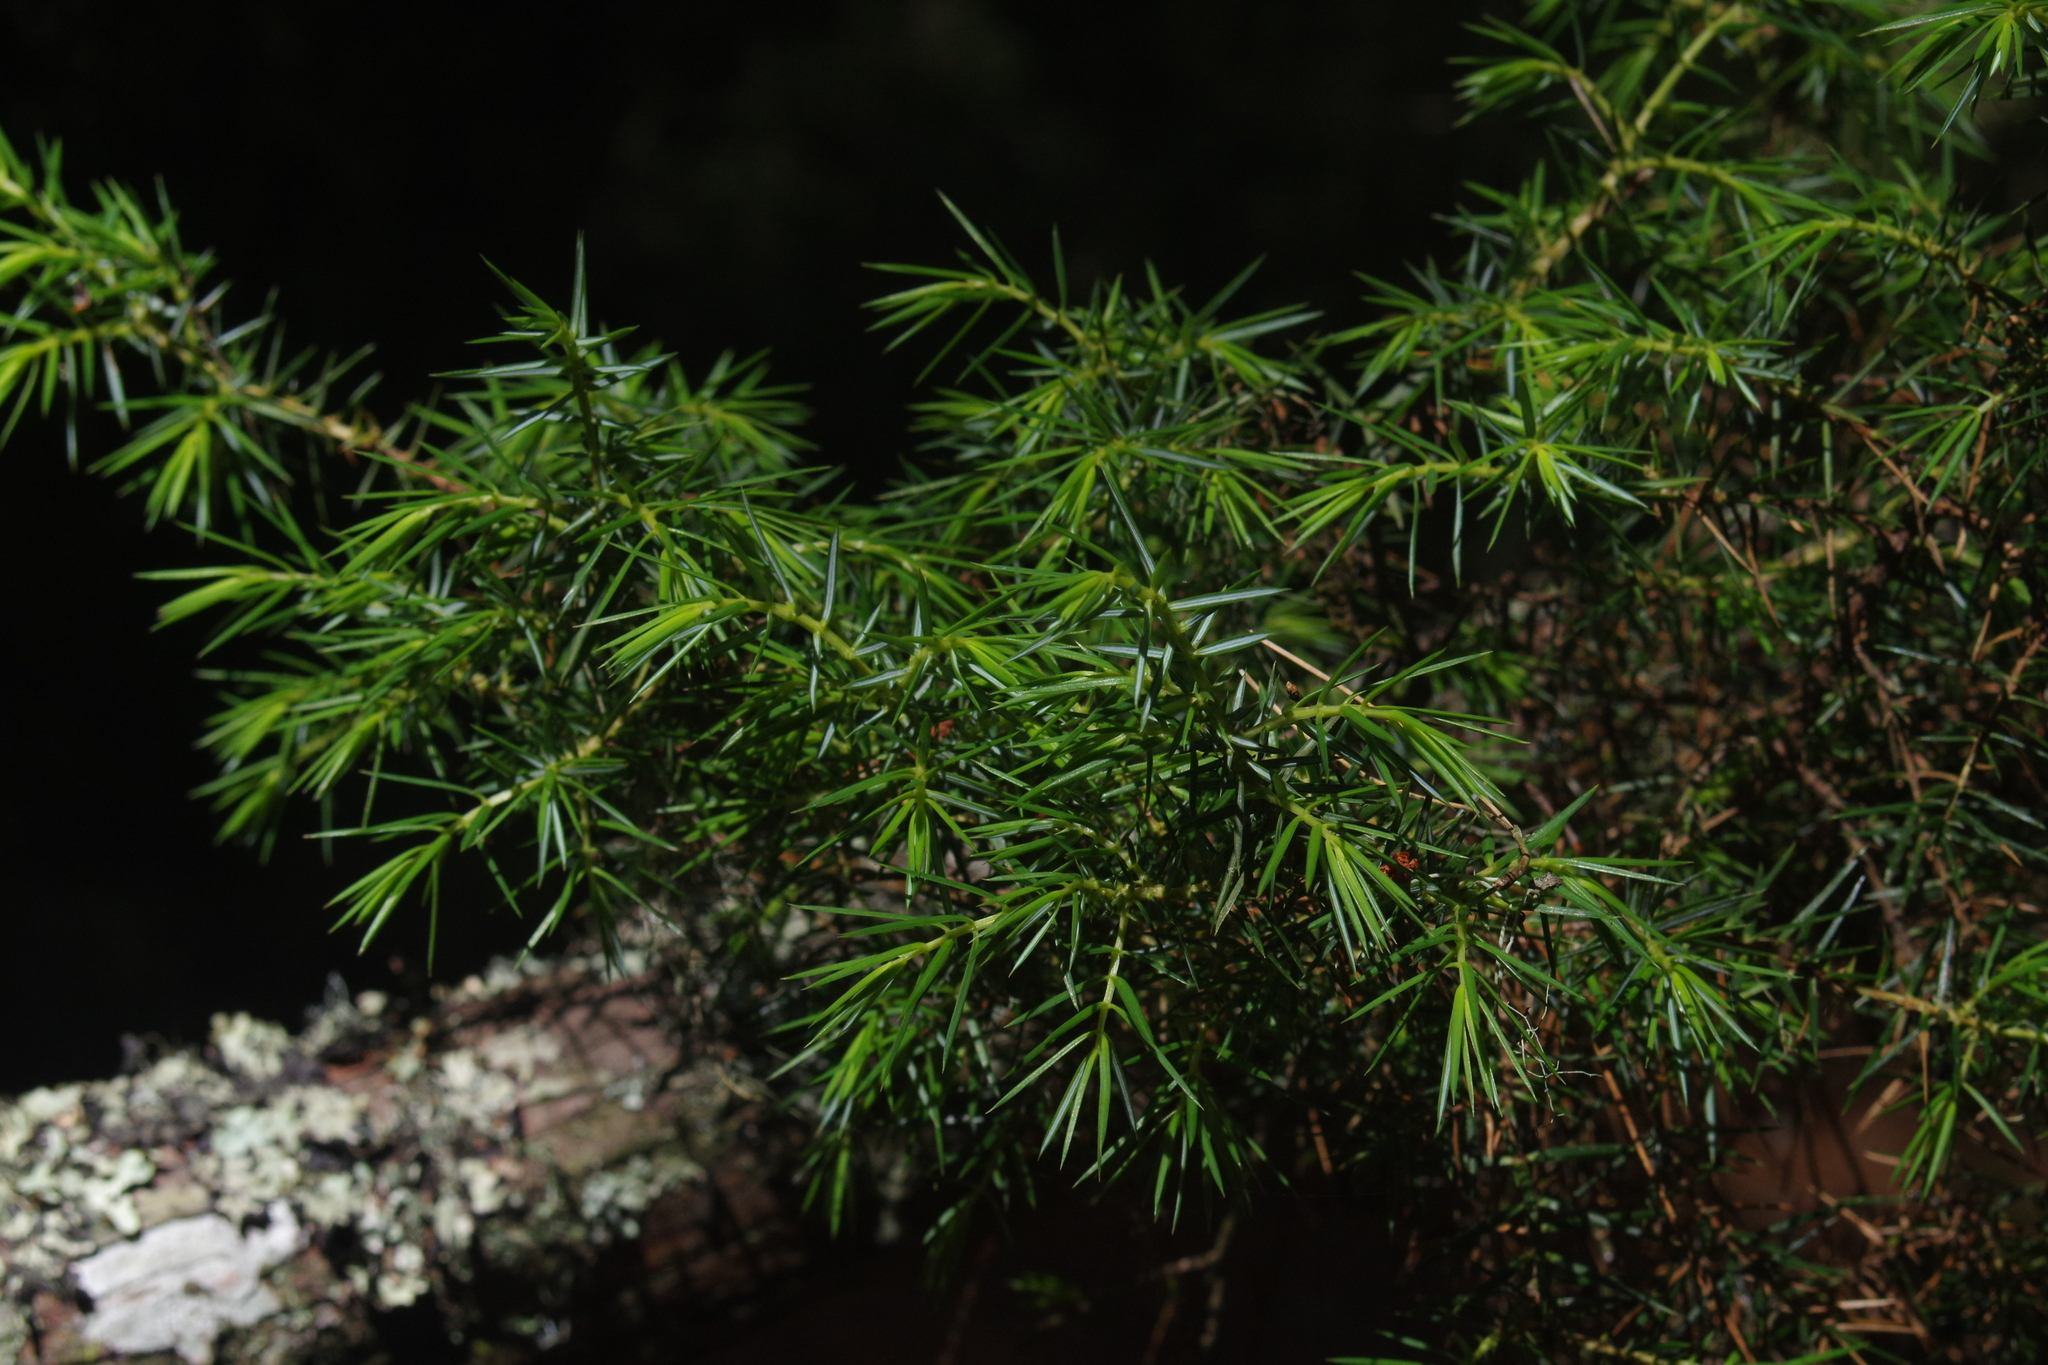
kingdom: Plantae
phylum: Tracheophyta
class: Pinopsida
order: Pinales
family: Cupressaceae
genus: Juniperus
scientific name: Juniperus formosana
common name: Formosan juniper
